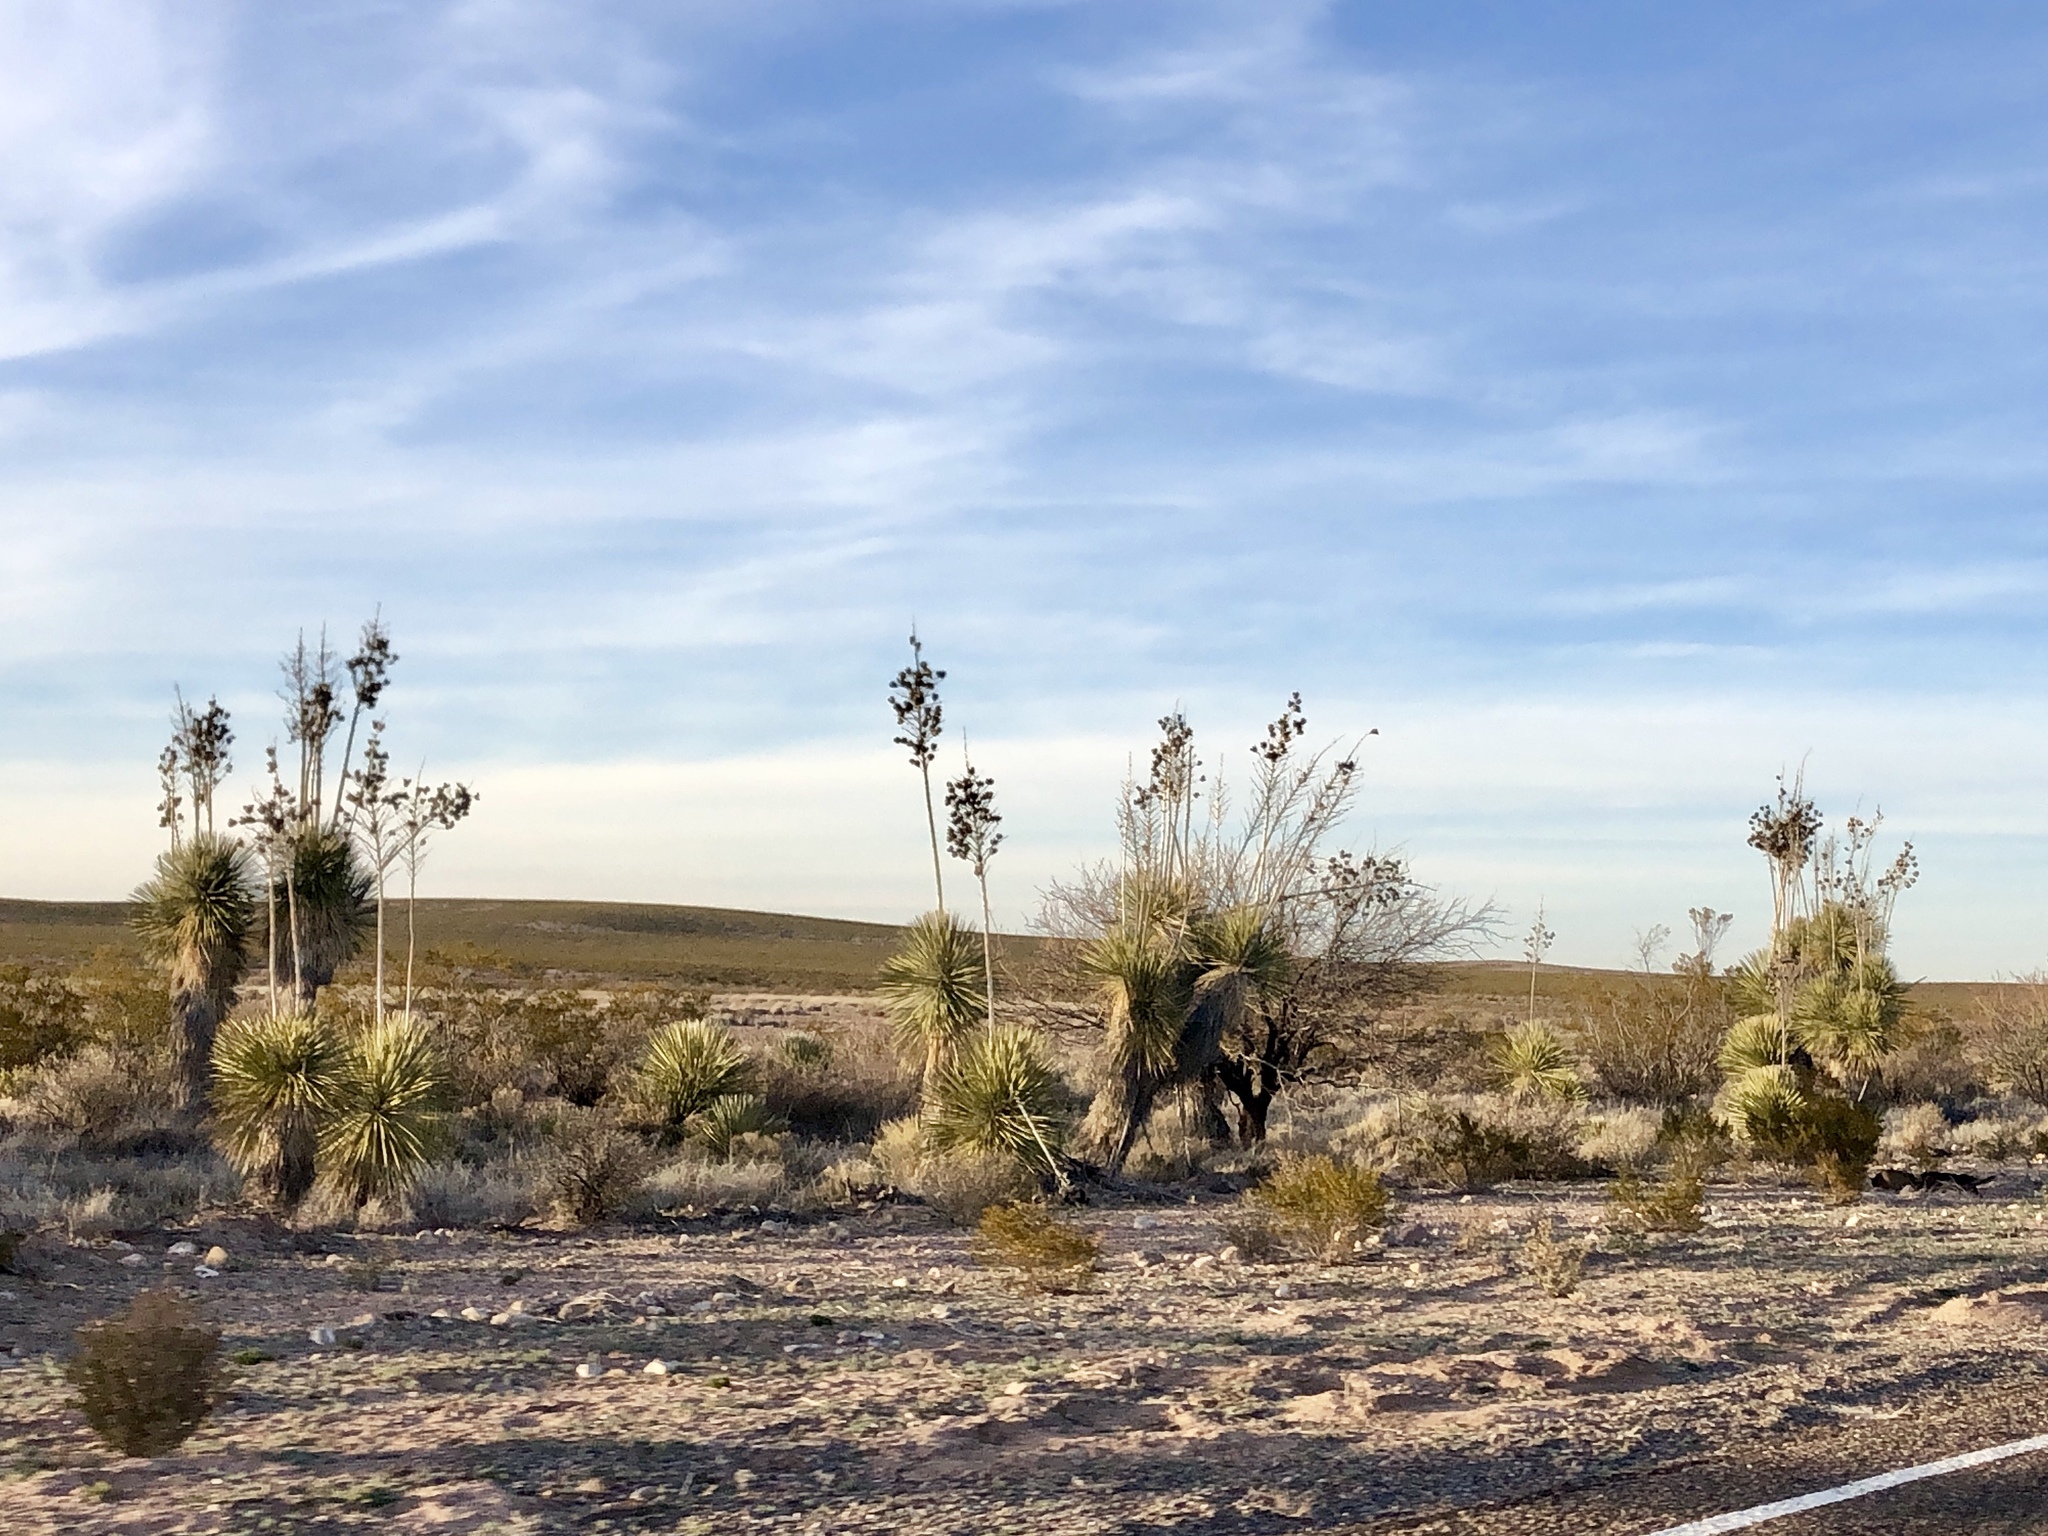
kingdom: Plantae
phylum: Tracheophyta
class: Liliopsida
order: Asparagales
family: Asparagaceae
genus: Yucca
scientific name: Yucca elata
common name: Palmella
